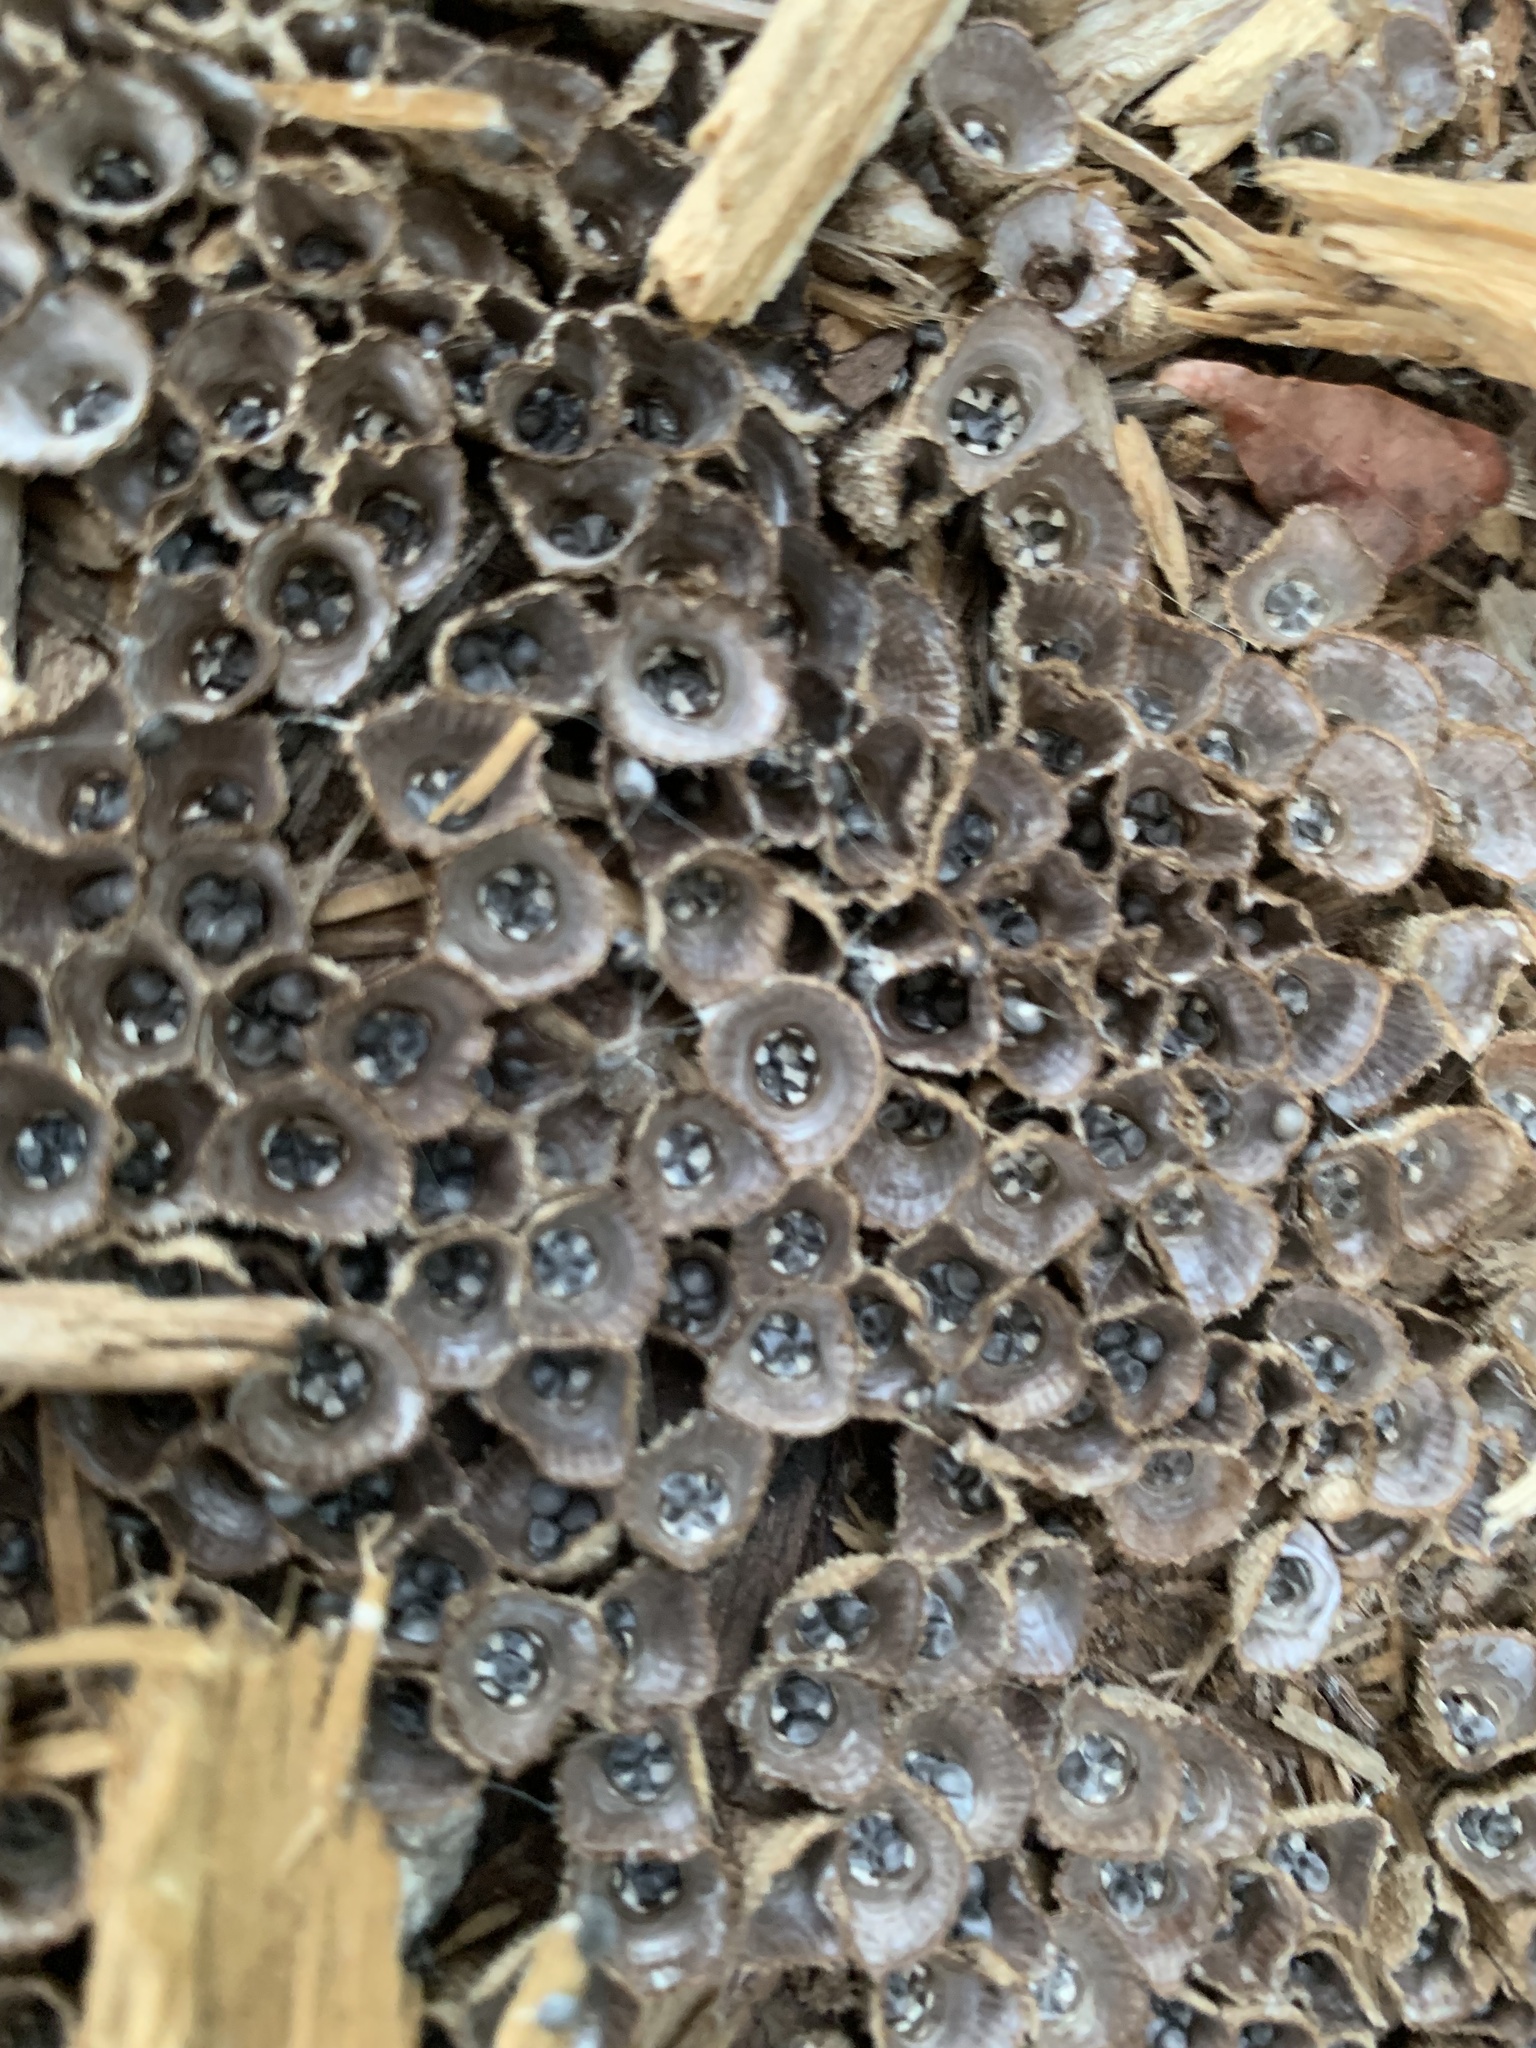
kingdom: Fungi
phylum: Basidiomycota
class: Agaricomycetes
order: Agaricales
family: Agaricaceae
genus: Cyathus
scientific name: Cyathus striatus
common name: Fluted bird's nest
